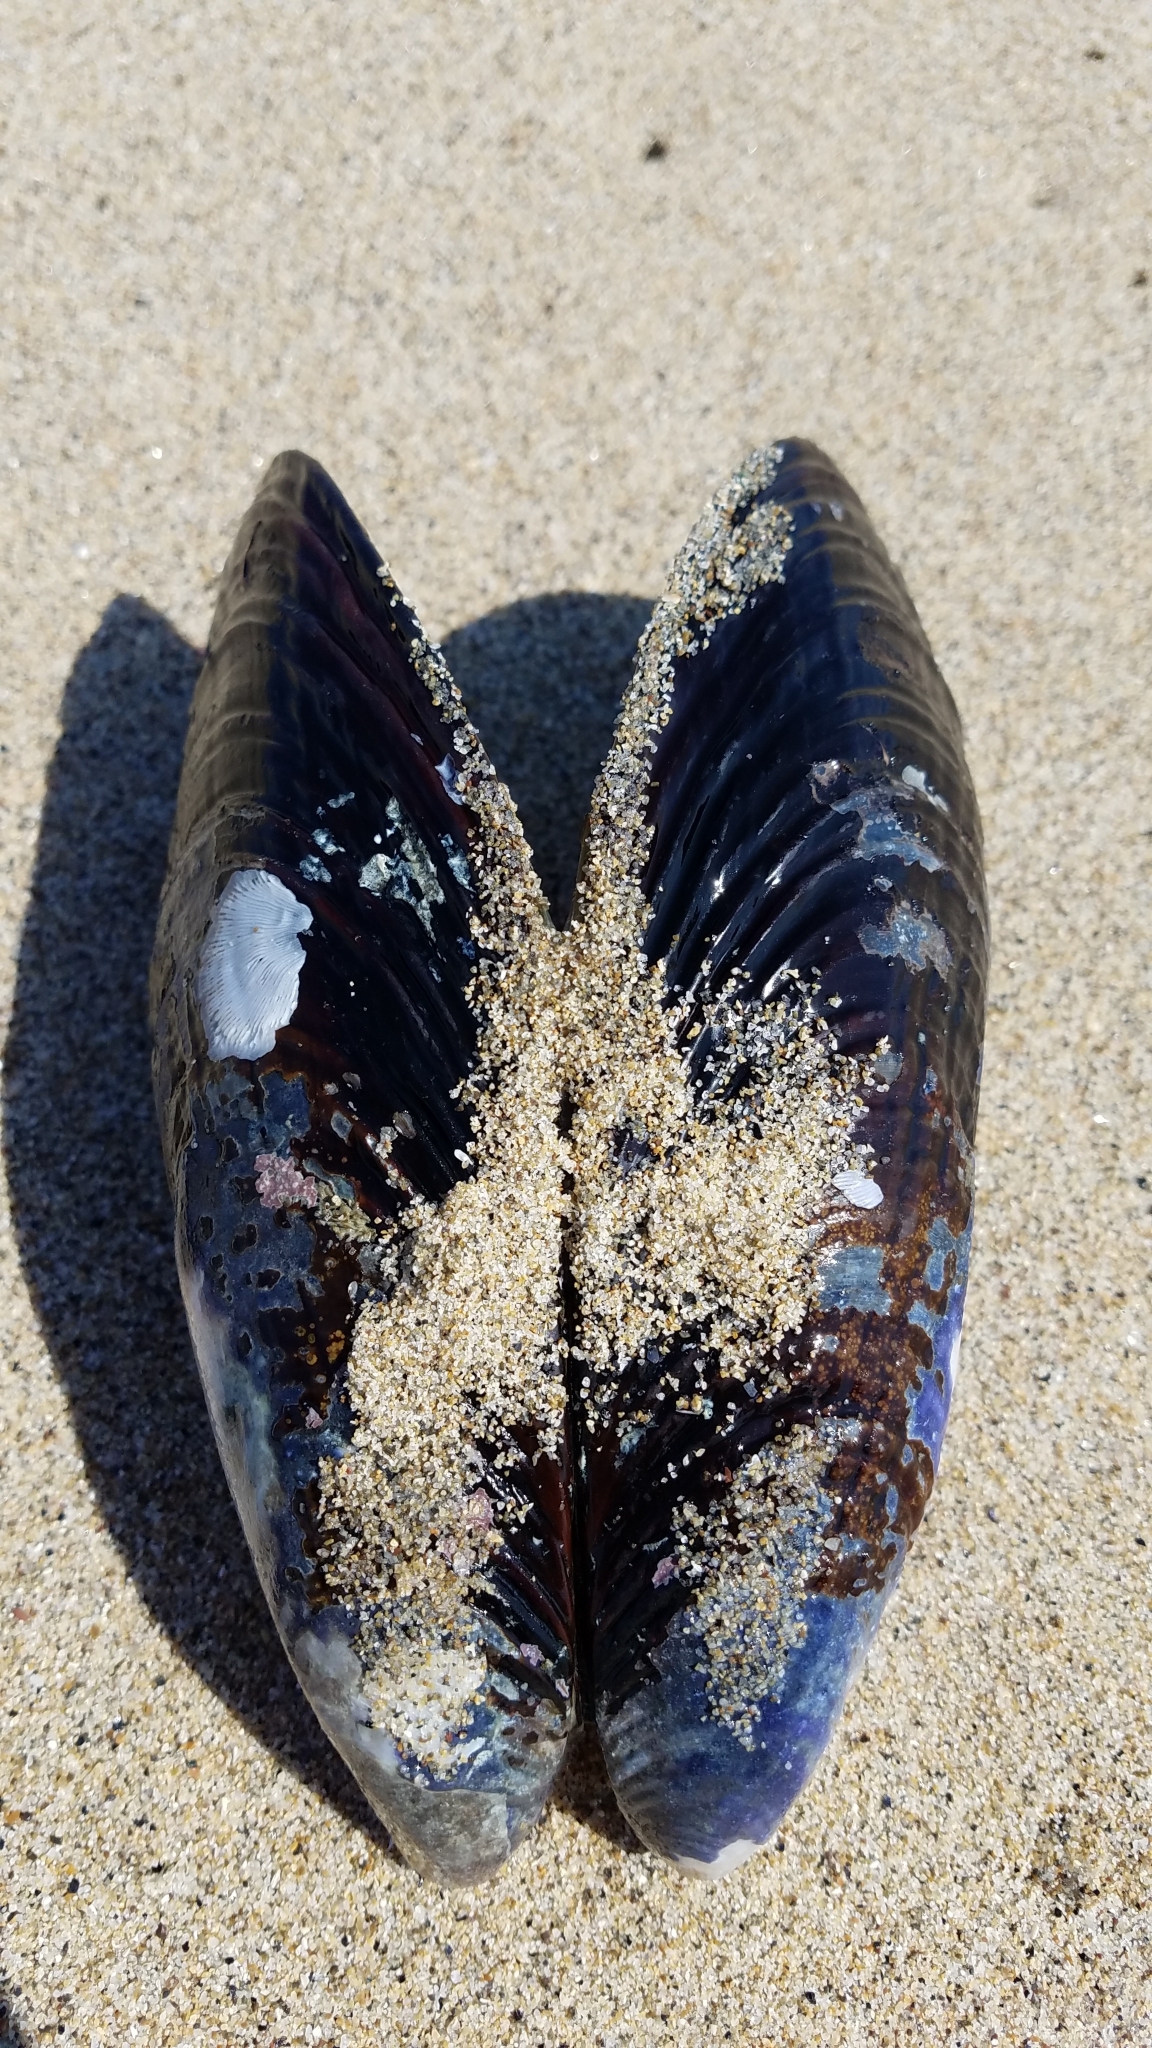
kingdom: Animalia
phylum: Mollusca
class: Bivalvia
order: Mytilida
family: Mytilidae
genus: Mytilus
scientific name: Mytilus californianus
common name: California mussel
